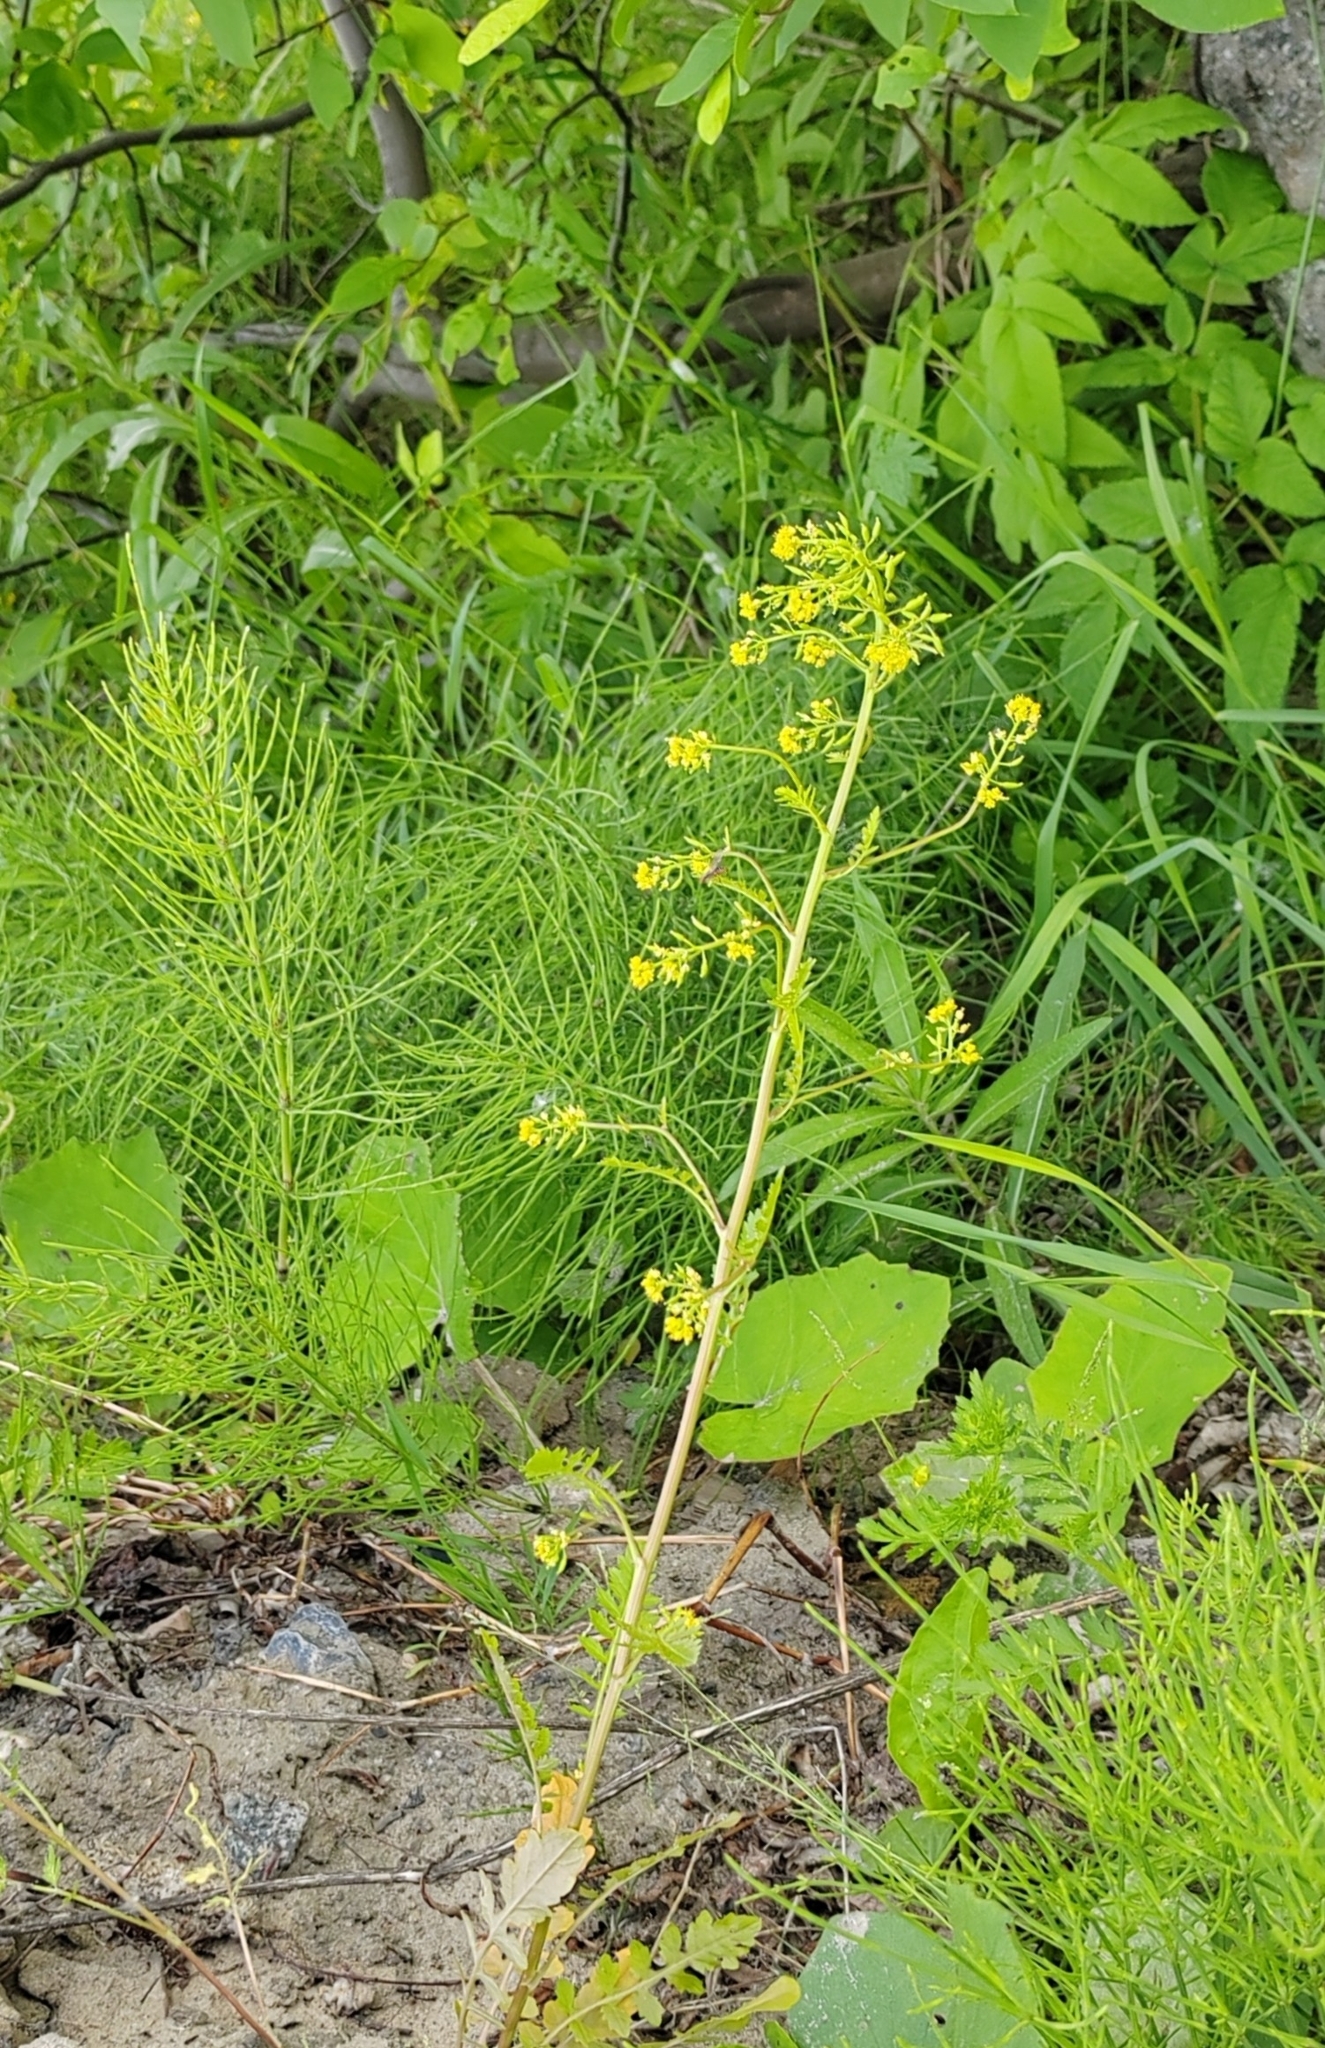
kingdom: Plantae
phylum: Tracheophyta
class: Magnoliopsida
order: Brassicales
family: Brassicaceae
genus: Rorippa
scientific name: Rorippa palustris
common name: Marsh yellow-cress
